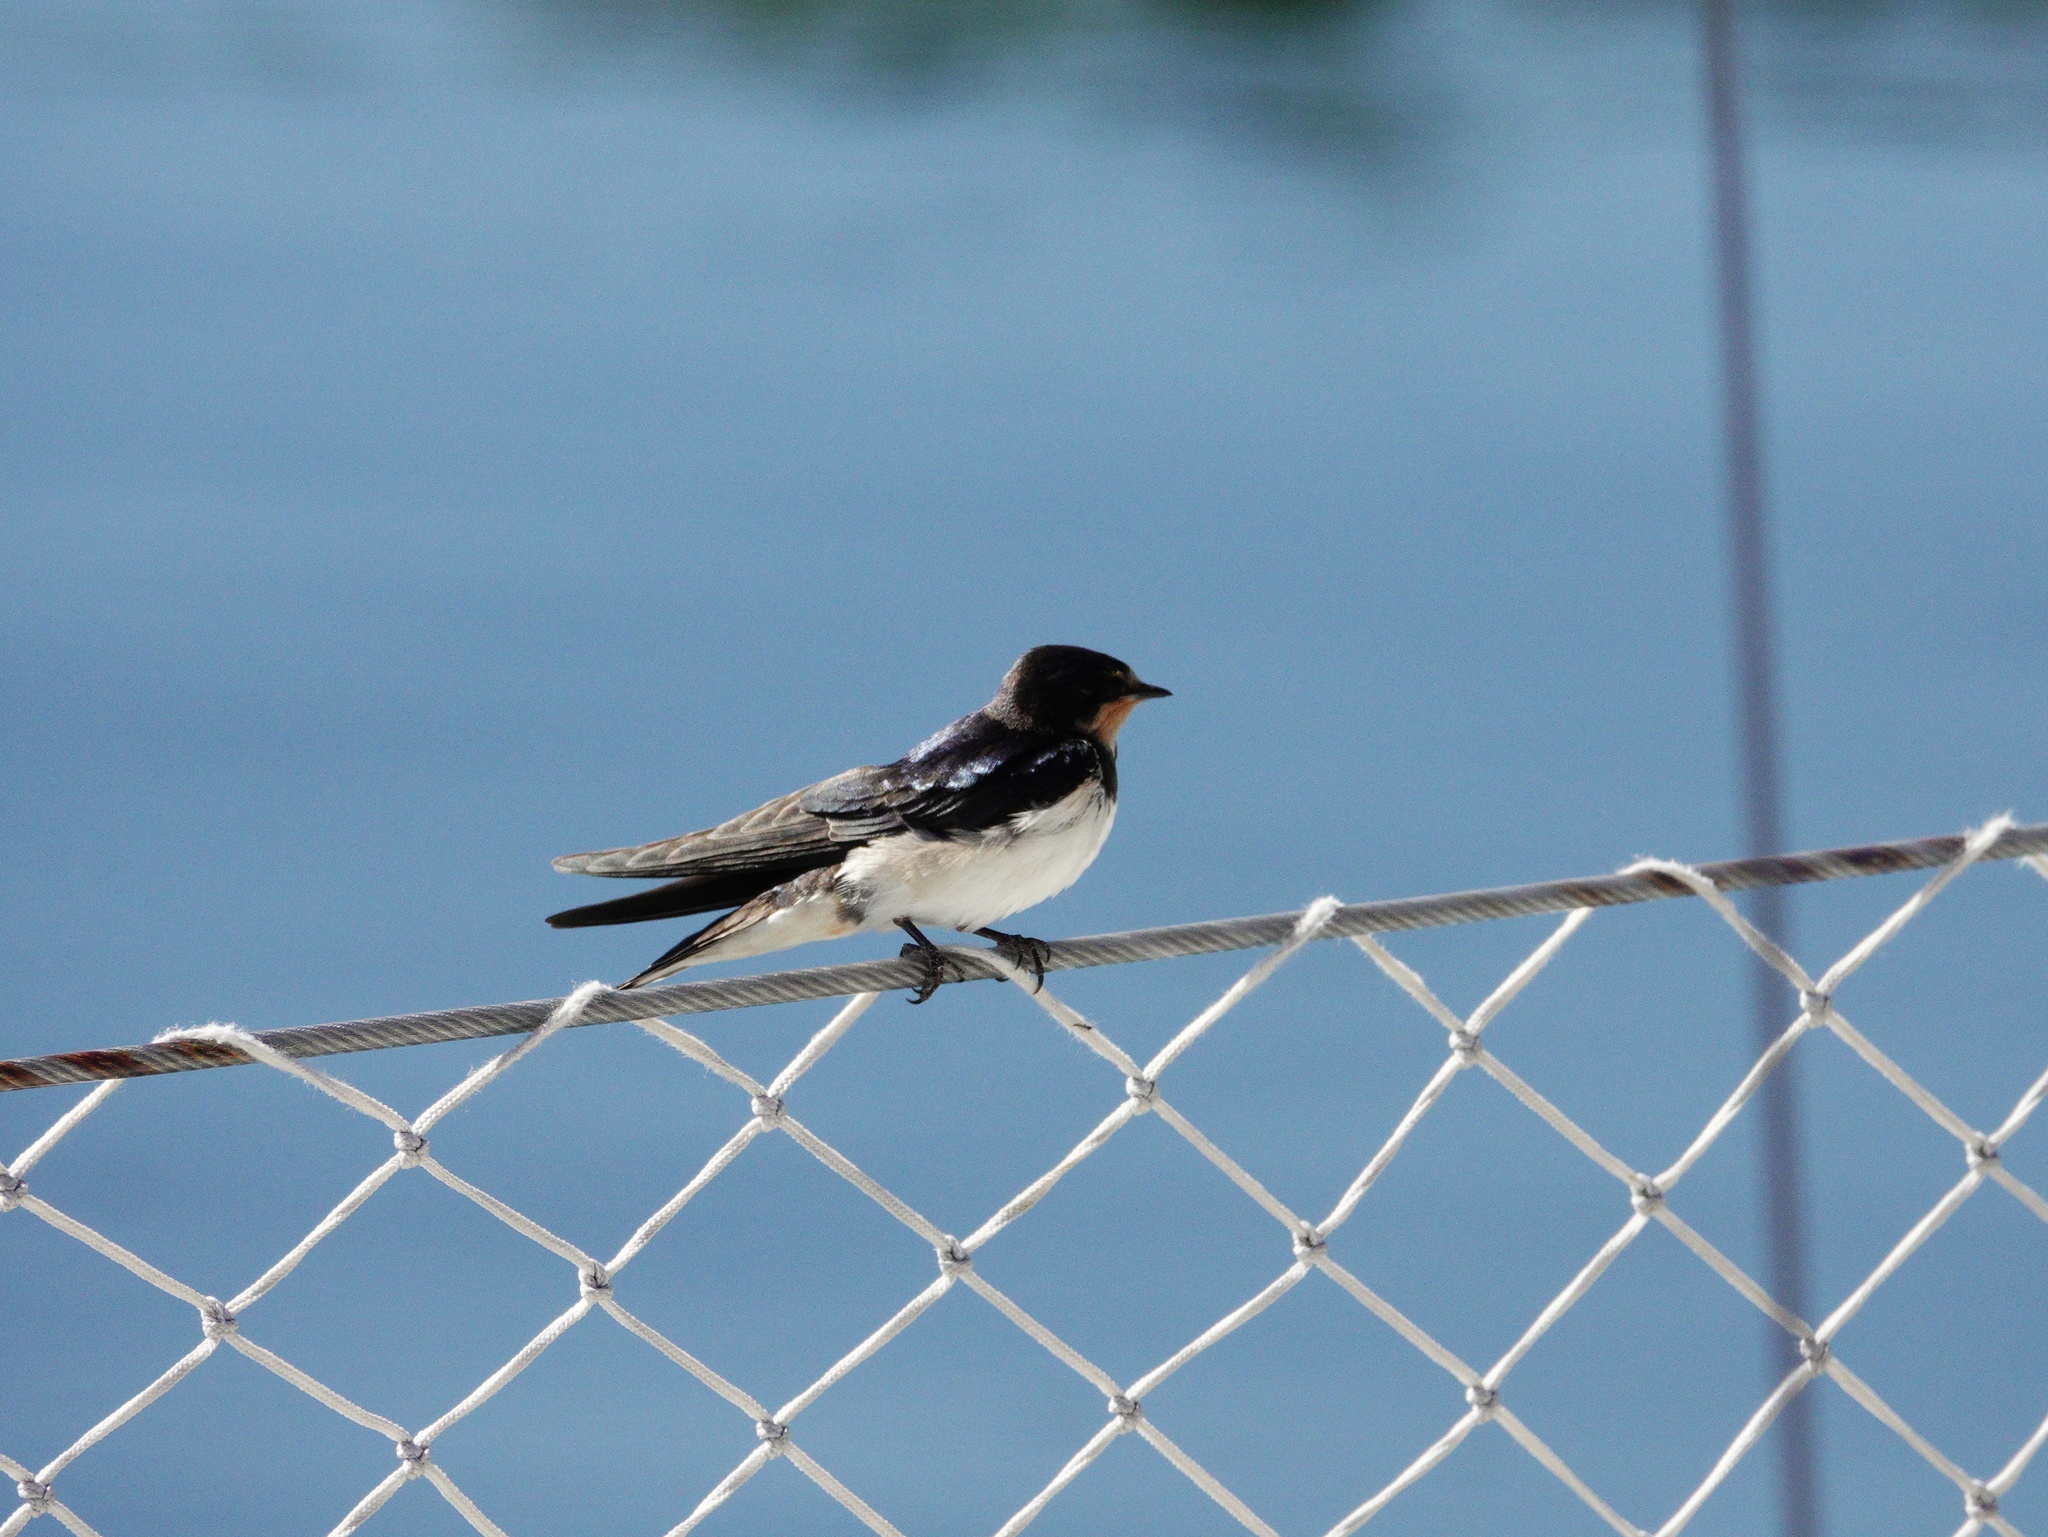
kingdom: Animalia
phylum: Chordata
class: Aves
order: Passeriformes
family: Hirundinidae
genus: Hirundo
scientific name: Hirundo rustica
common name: Barn swallow
